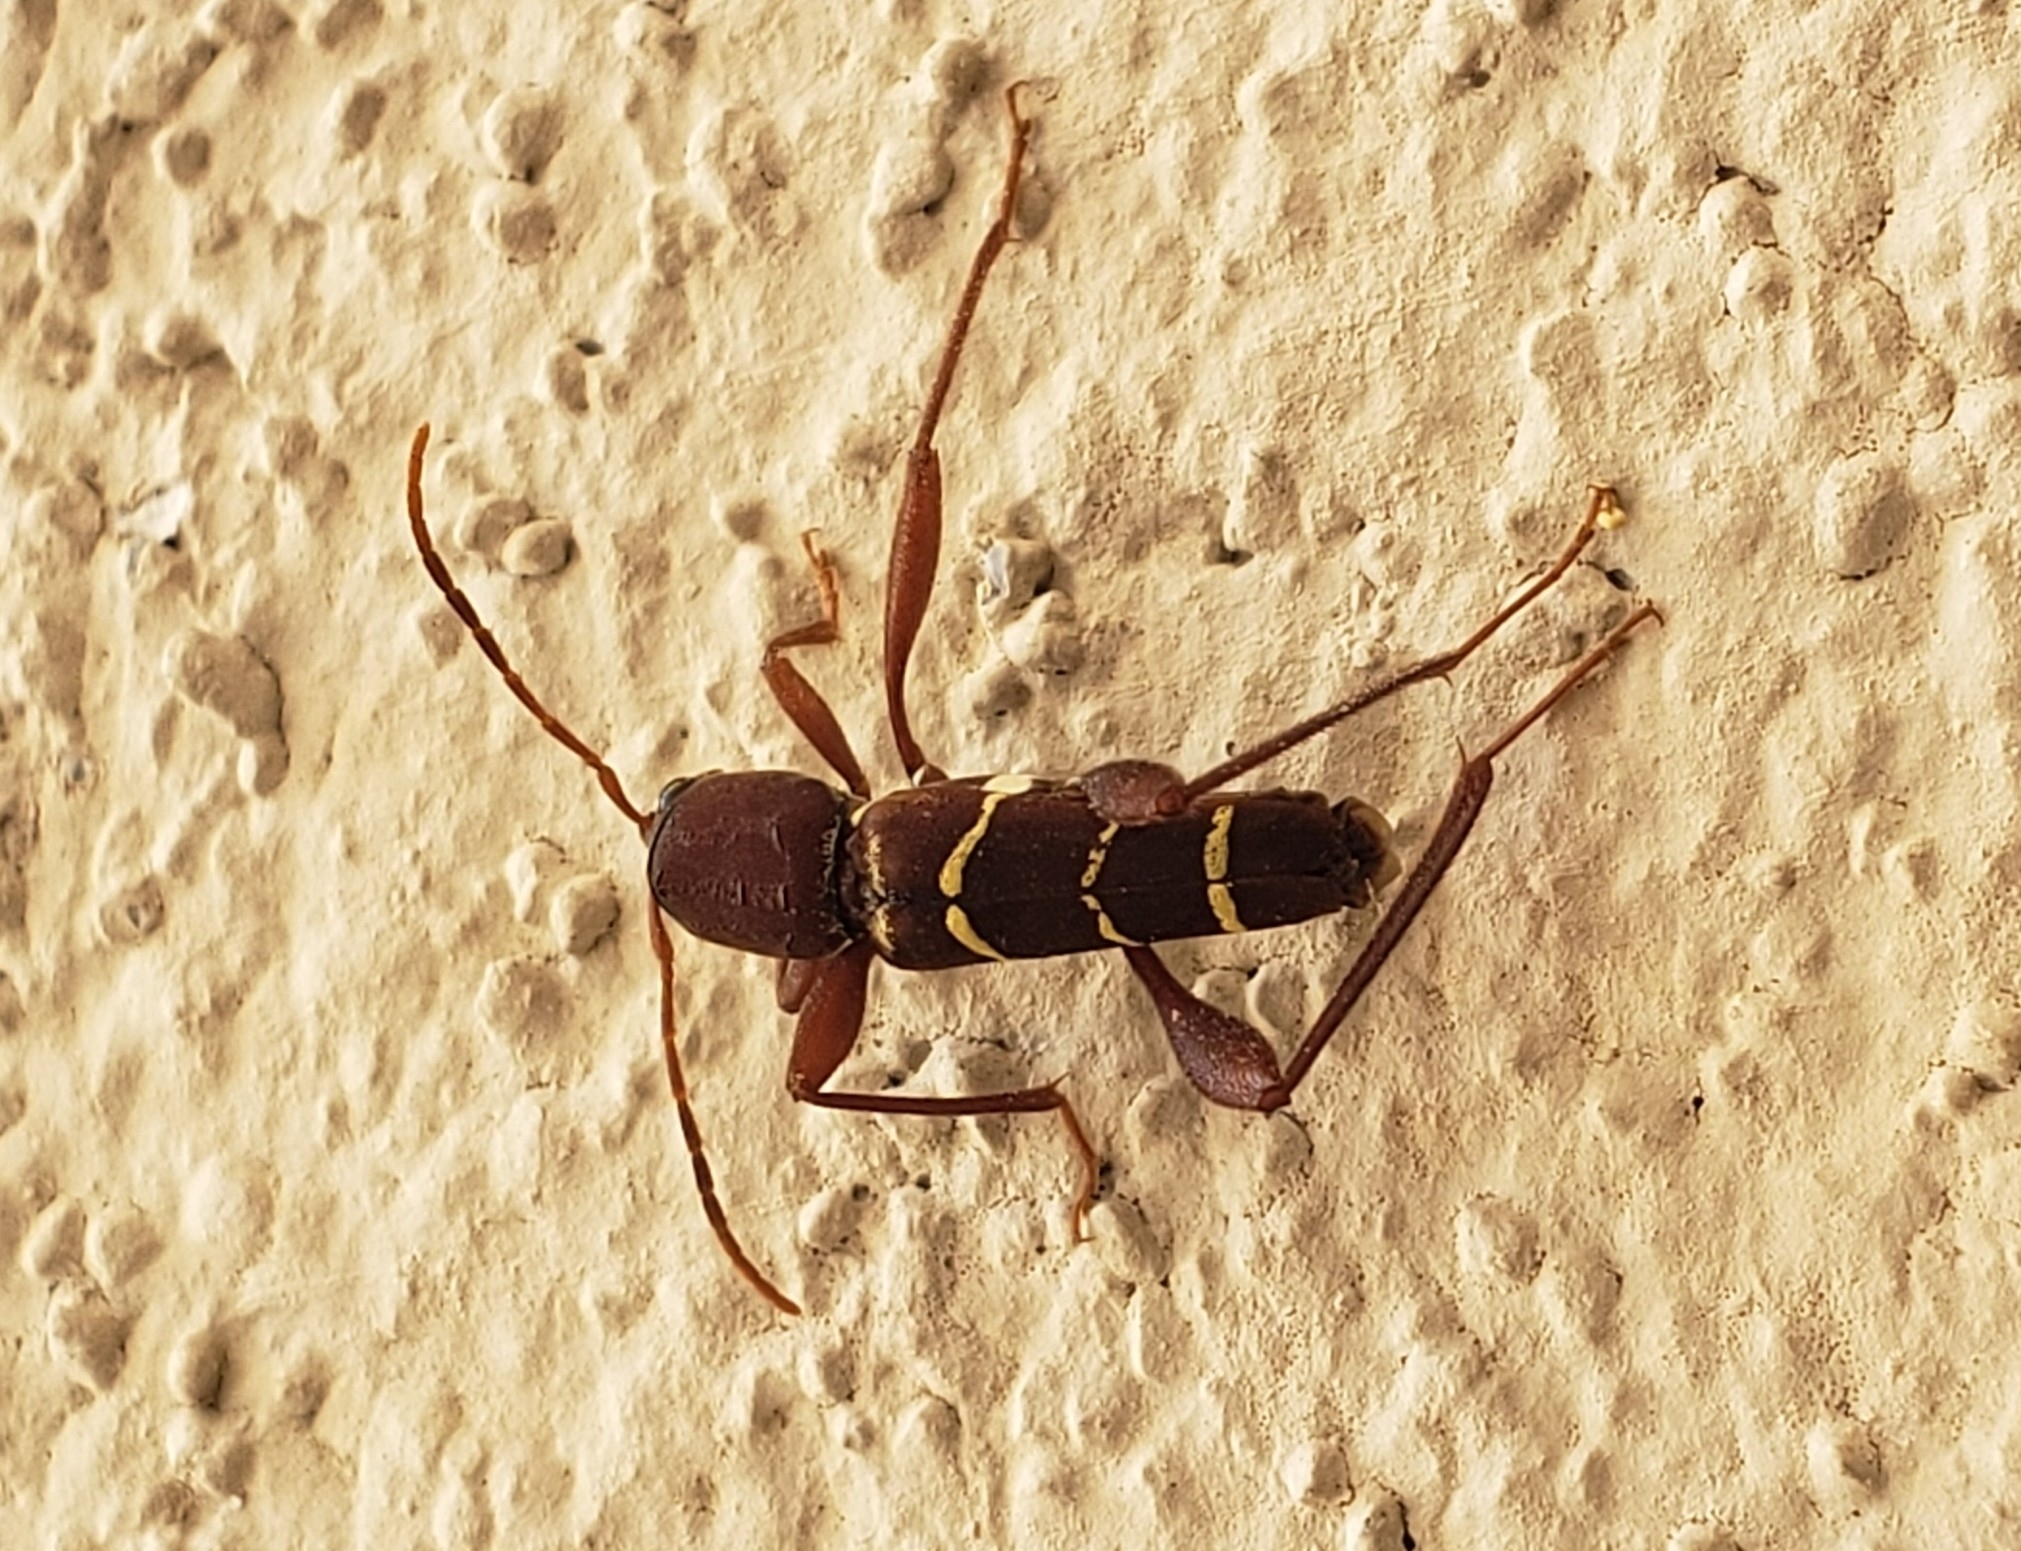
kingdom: Animalia
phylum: Arthropoda
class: Insecta
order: Coleoptera
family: Cerambycidae
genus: Neoclytus
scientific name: Neoclytus acuminatus
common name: Read-headed ash borer
